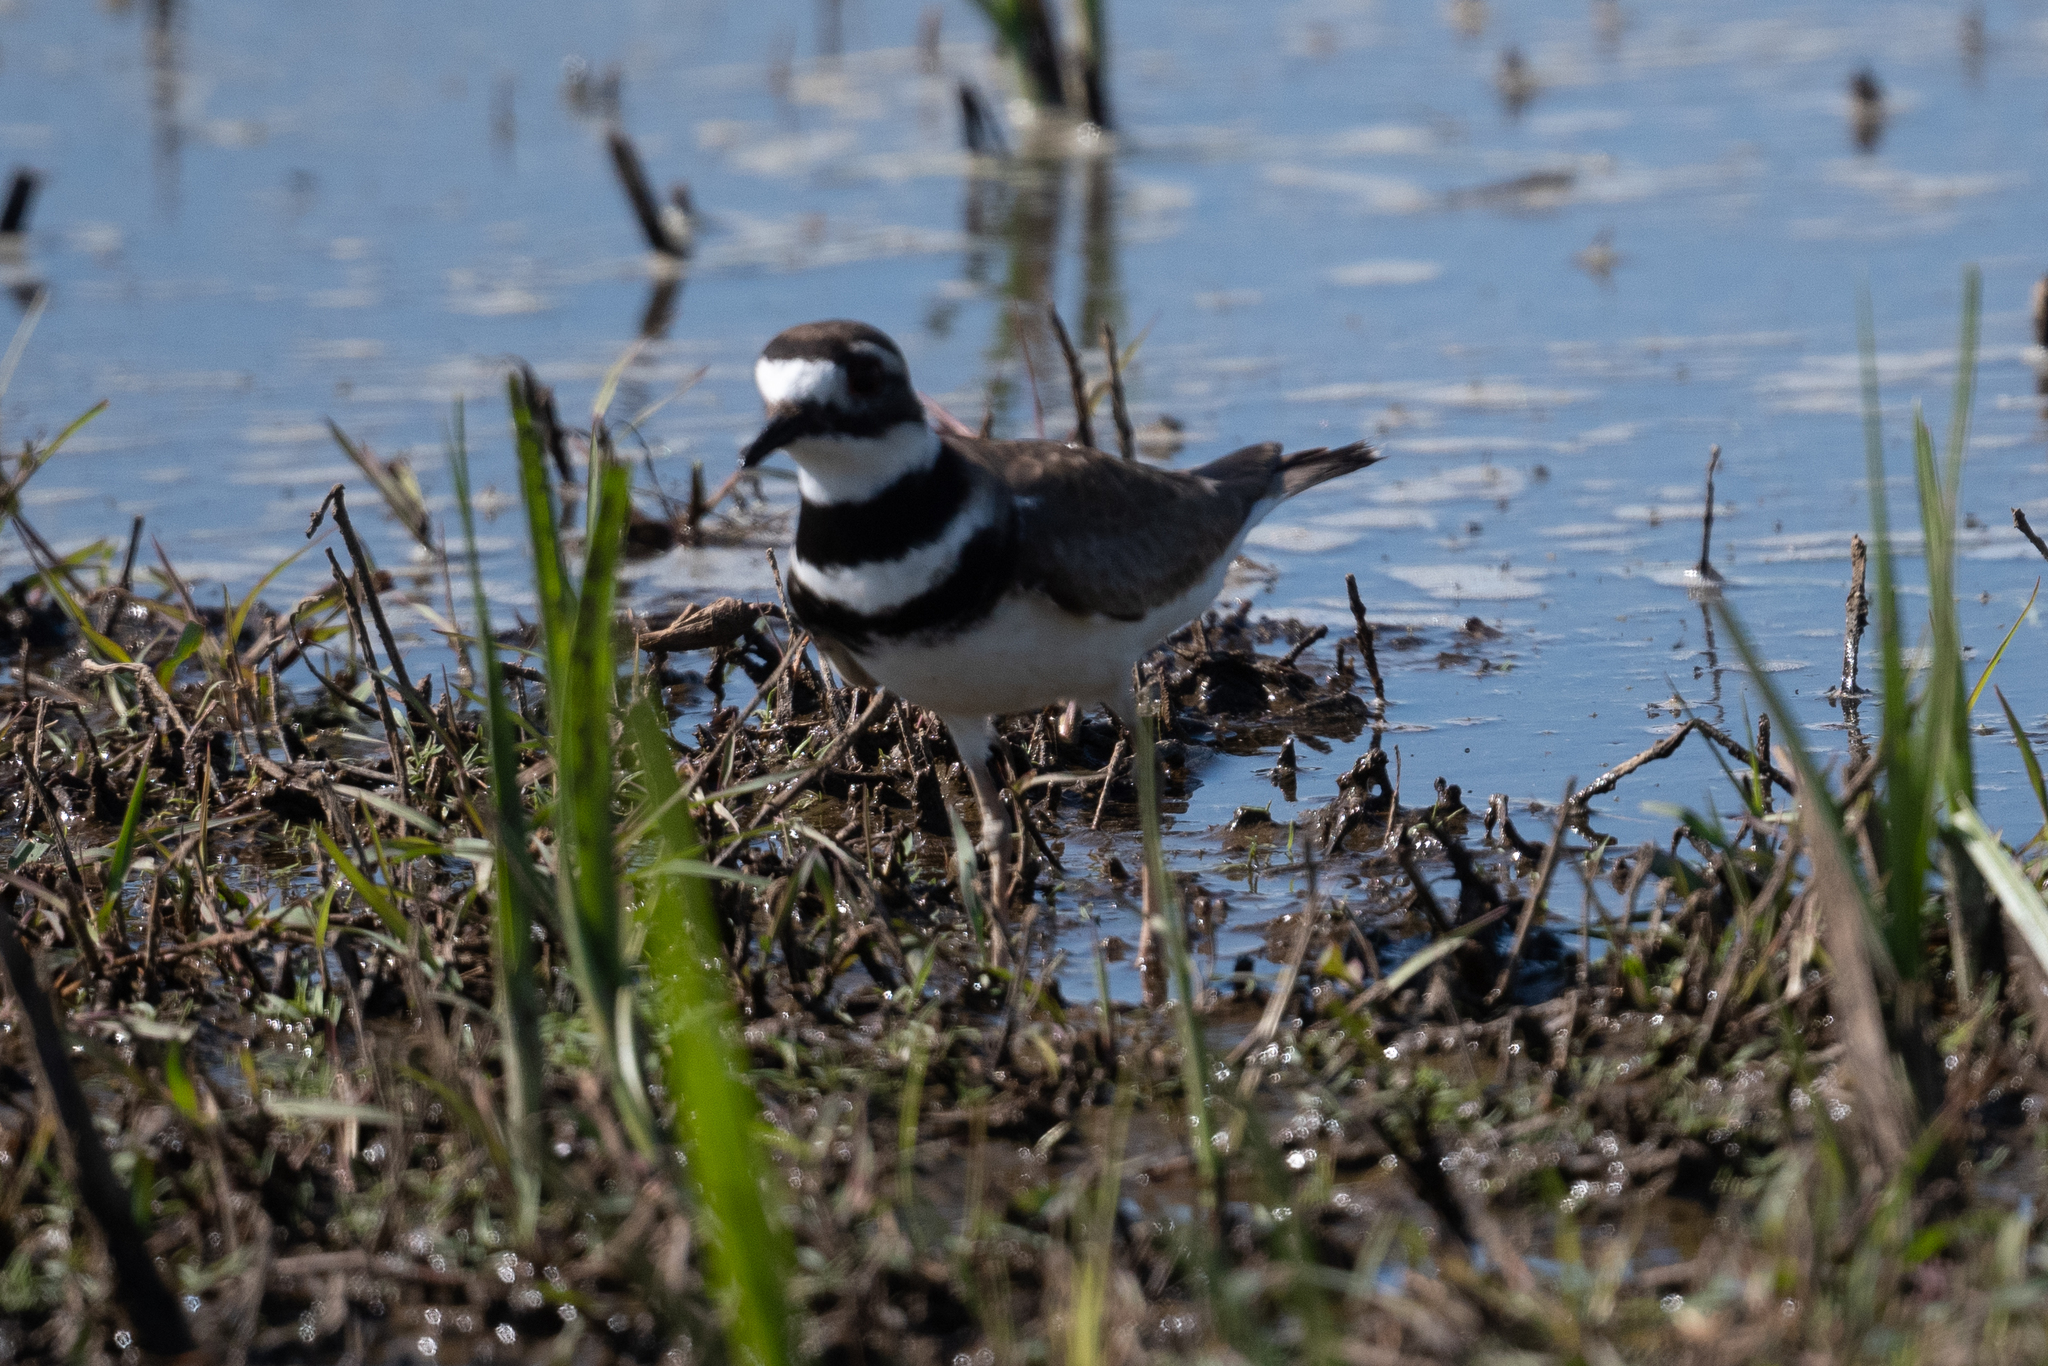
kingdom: Animalia
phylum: Chordata
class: Aves
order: Charadriiformes
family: Charadriidae
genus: Charadrius
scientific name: Charadrius vociferus
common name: Killdeer
